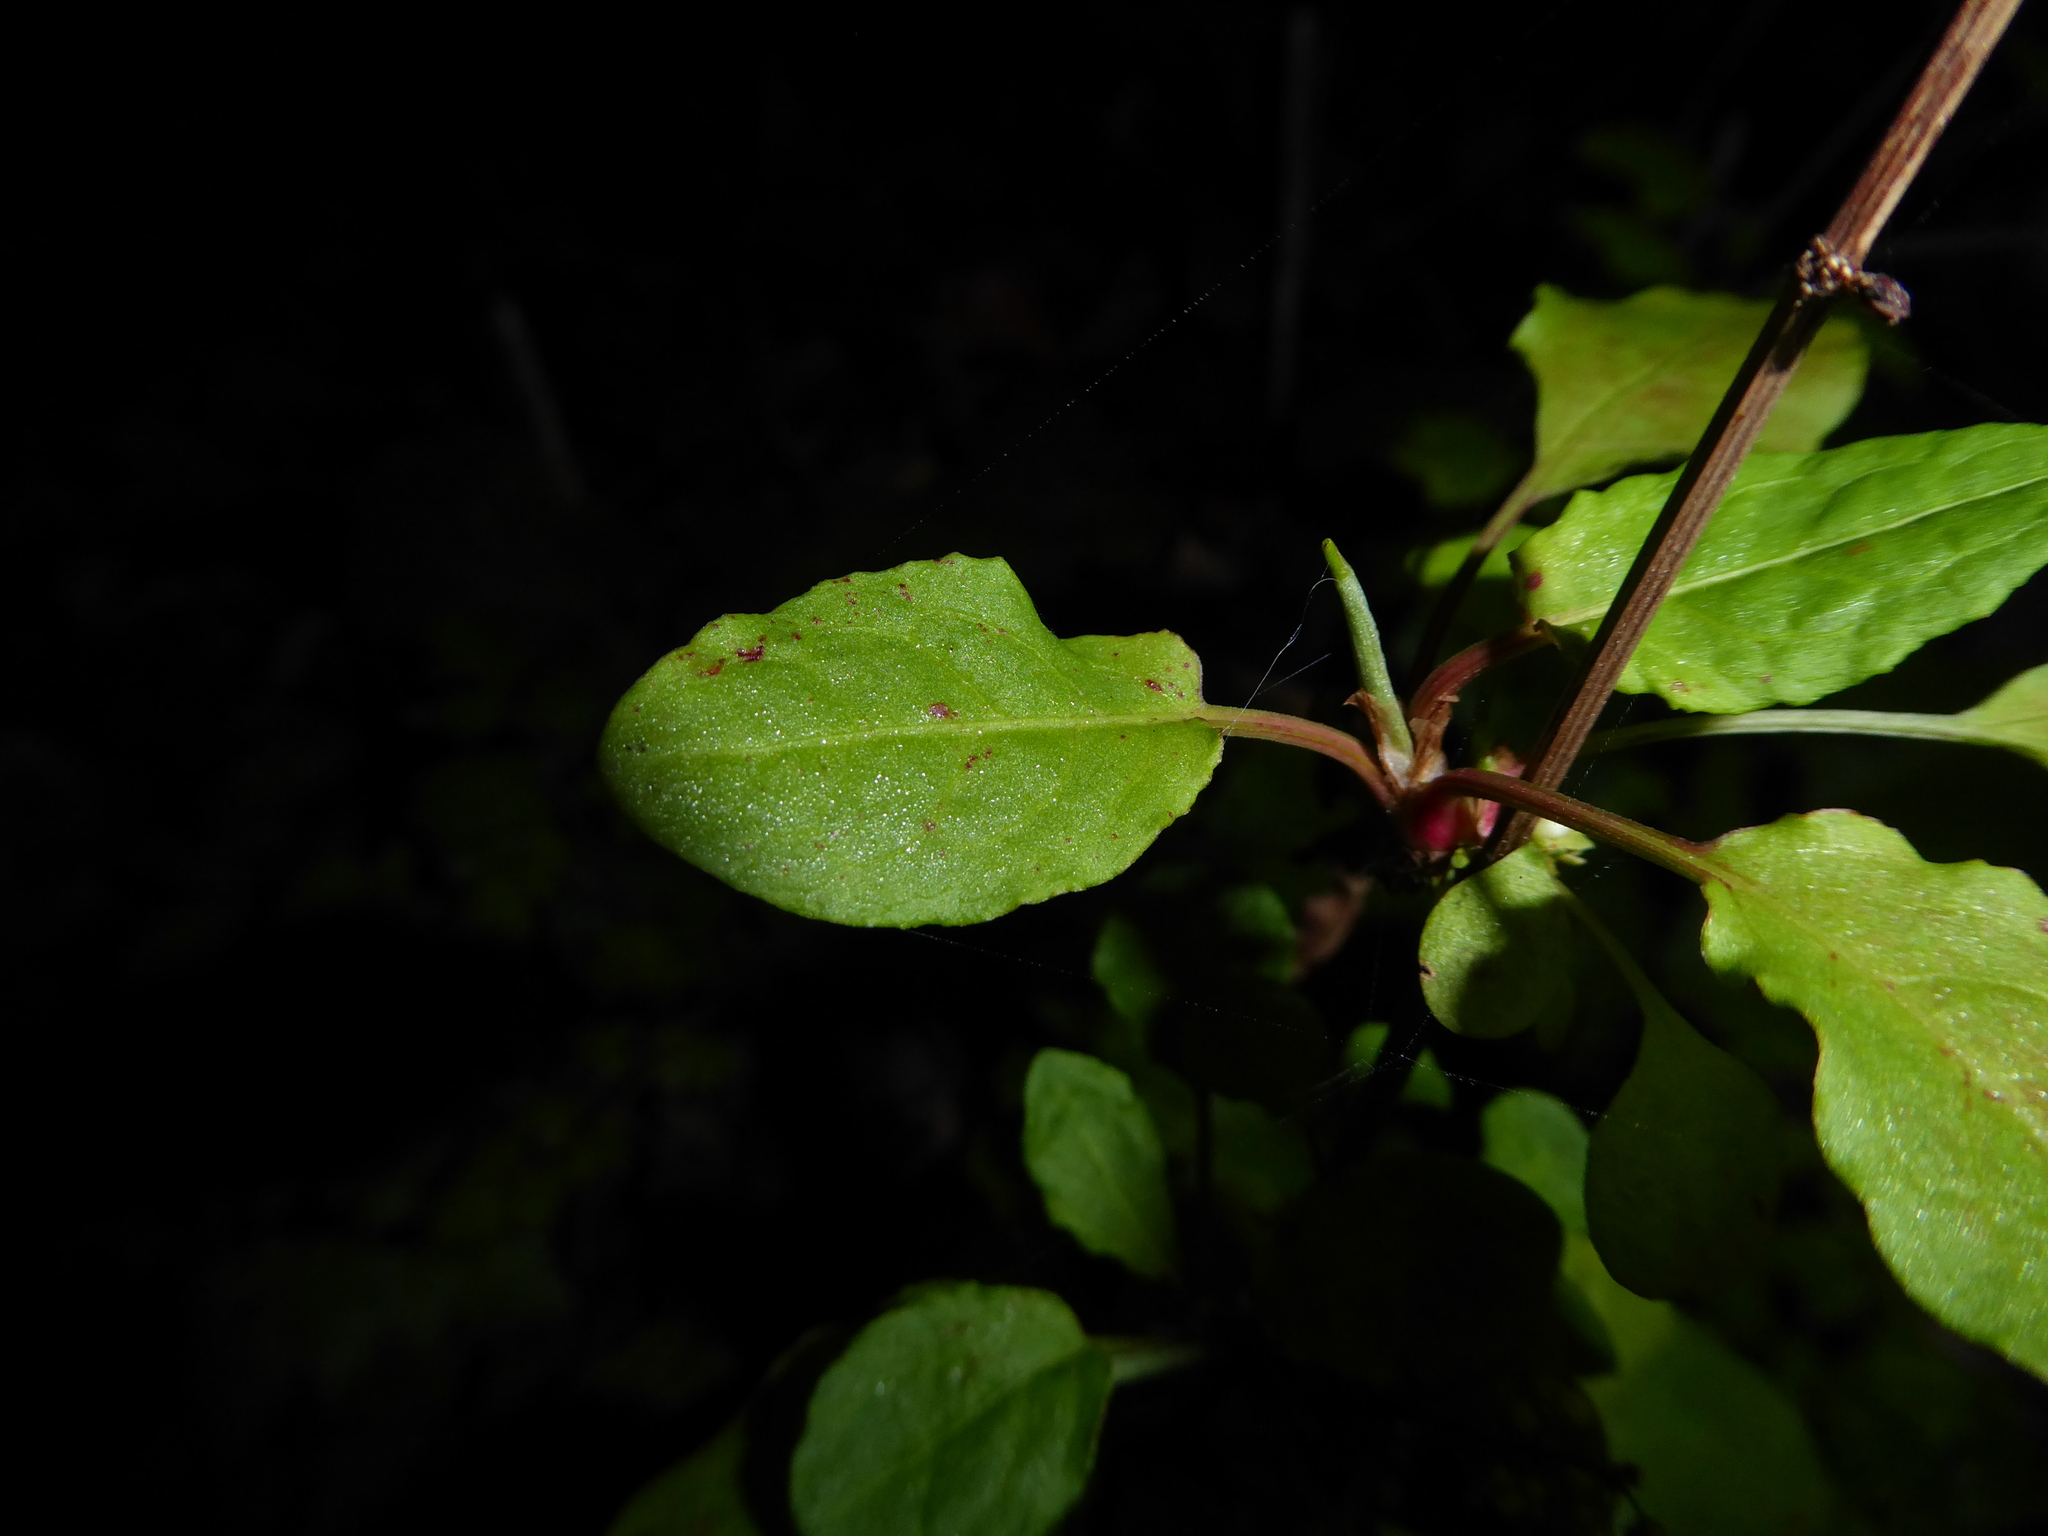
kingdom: Plantae
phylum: Tracheophyta
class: Magnoliopsida
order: Caryophyllales
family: Polygonaceae
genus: Rumex
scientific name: Rumex conglomeratus
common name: Clustered dock
